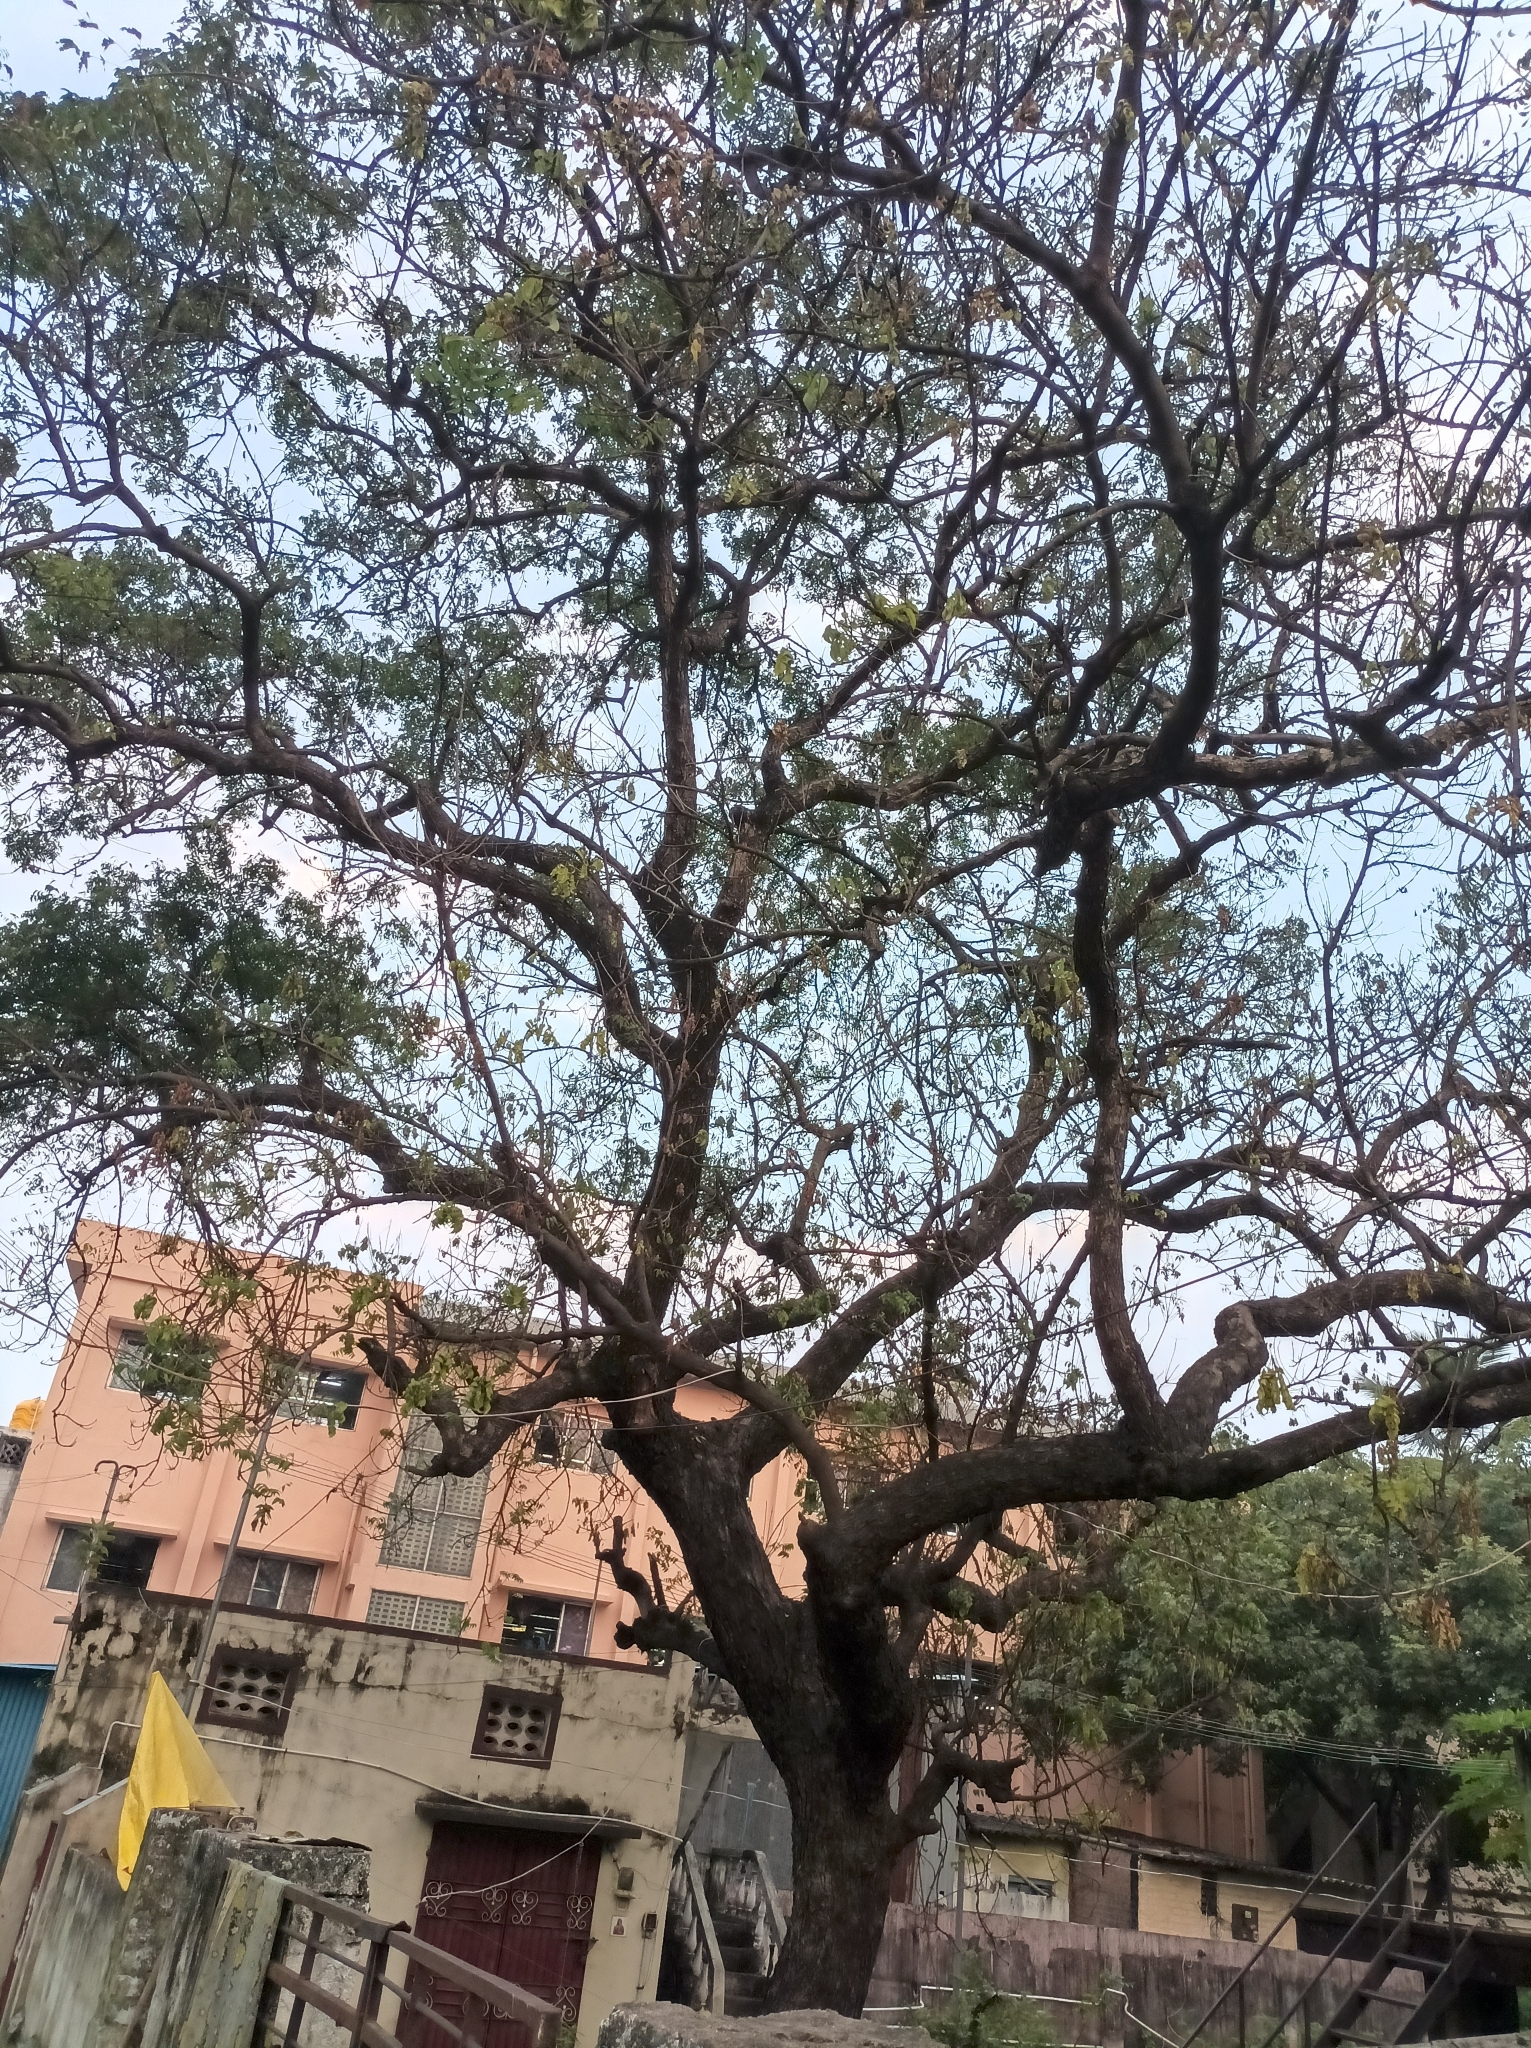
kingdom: Plantae
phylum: Tracheophyta
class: Magnoliopsida
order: Sapindales
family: Meliaceae
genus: Azadirachta
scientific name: Azadirachta indica
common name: Neem
